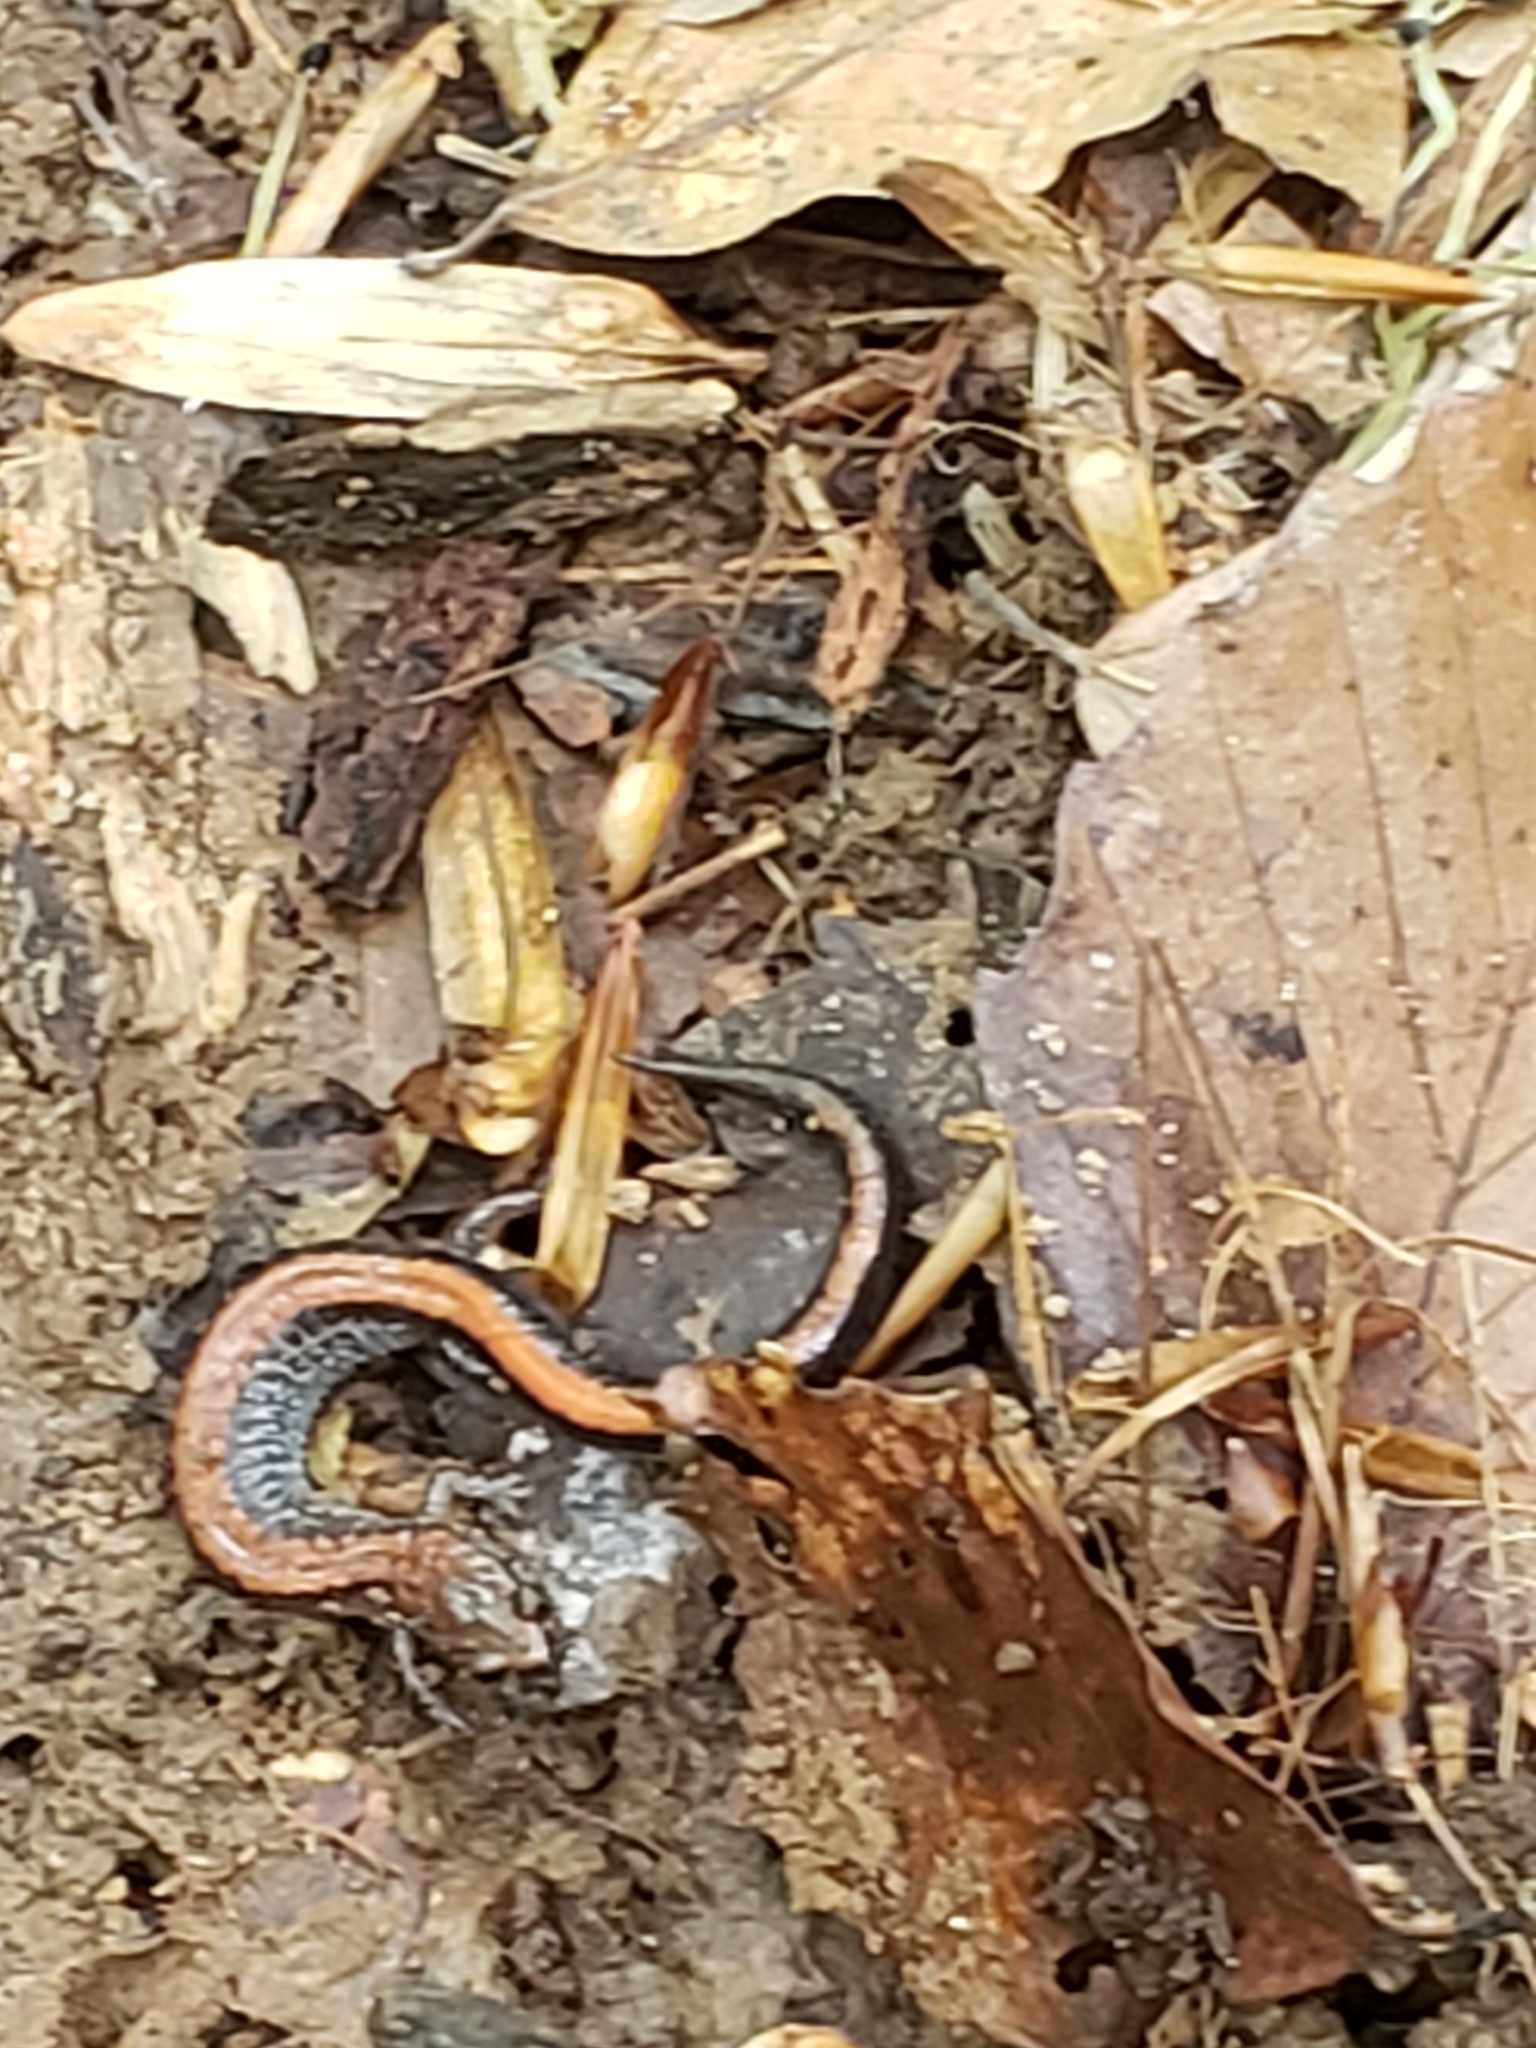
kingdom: Animalia
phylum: Chordata
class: Amphibia
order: Caudata
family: Plethodontidae
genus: Plethodon
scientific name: Plethodon cinereus
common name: Redback salamander
